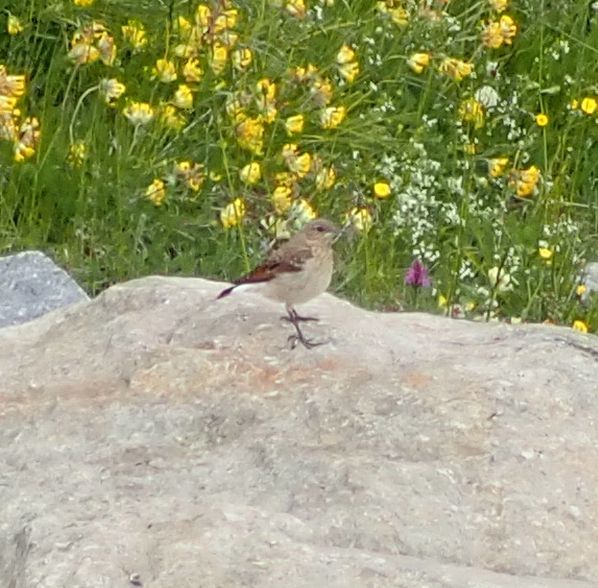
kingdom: Animalia
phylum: Chordata
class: Aves
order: Passeriformes
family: Muscicapidae
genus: Oenanthe
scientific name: Oenanthe oenanthe
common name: Northern wheatear
